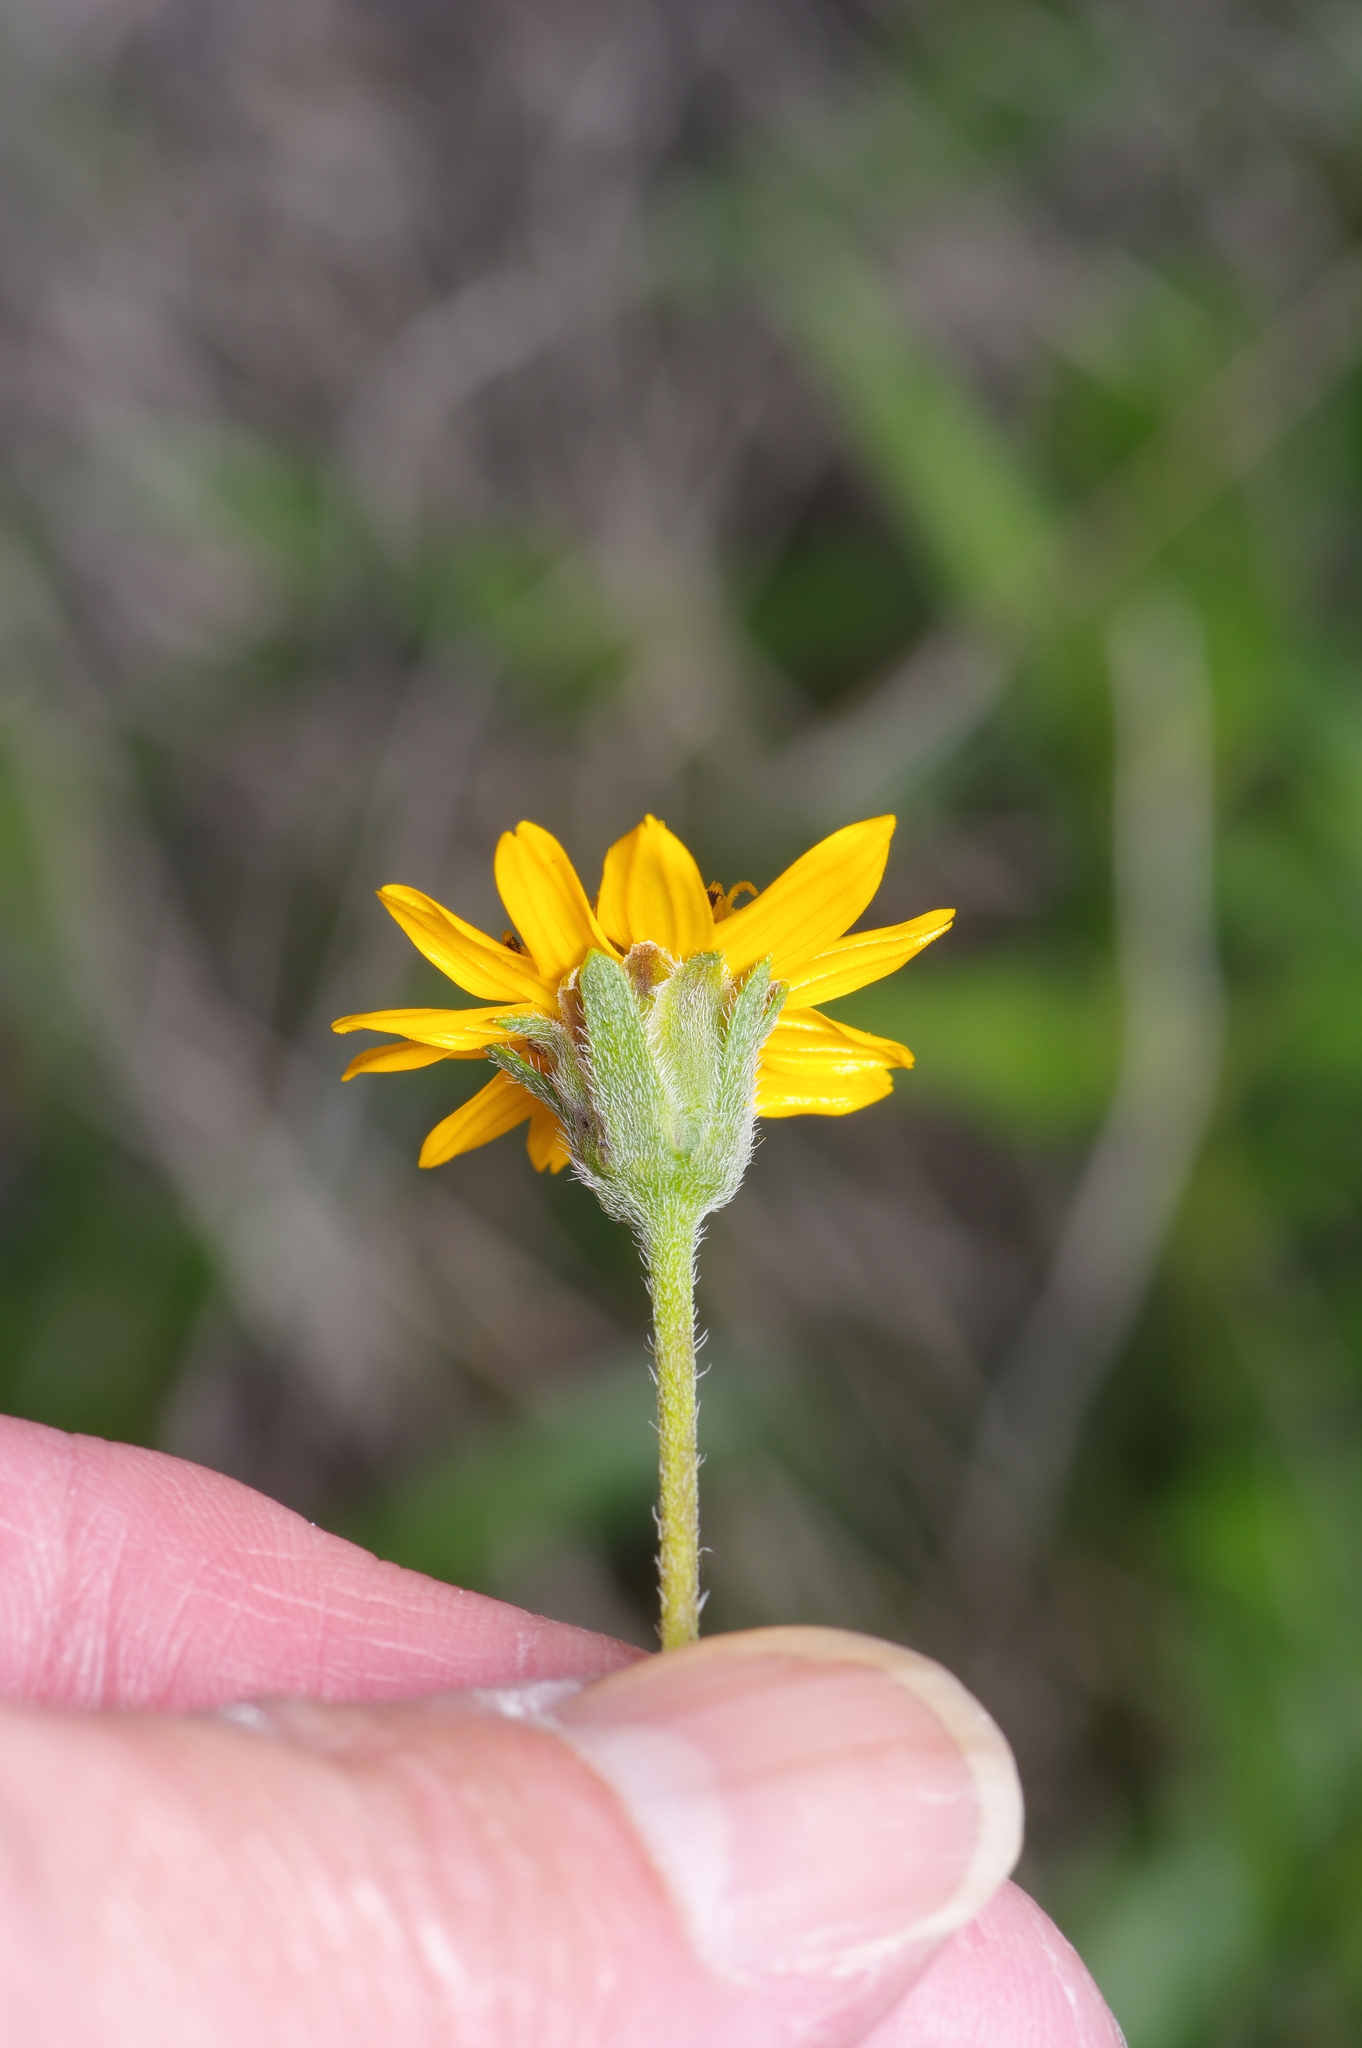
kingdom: Plantae
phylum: Tracheophyta
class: Magnoliopsida
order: Asterales
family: Asteraceae
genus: Wedelia
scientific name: Wedelia acapulcensis
